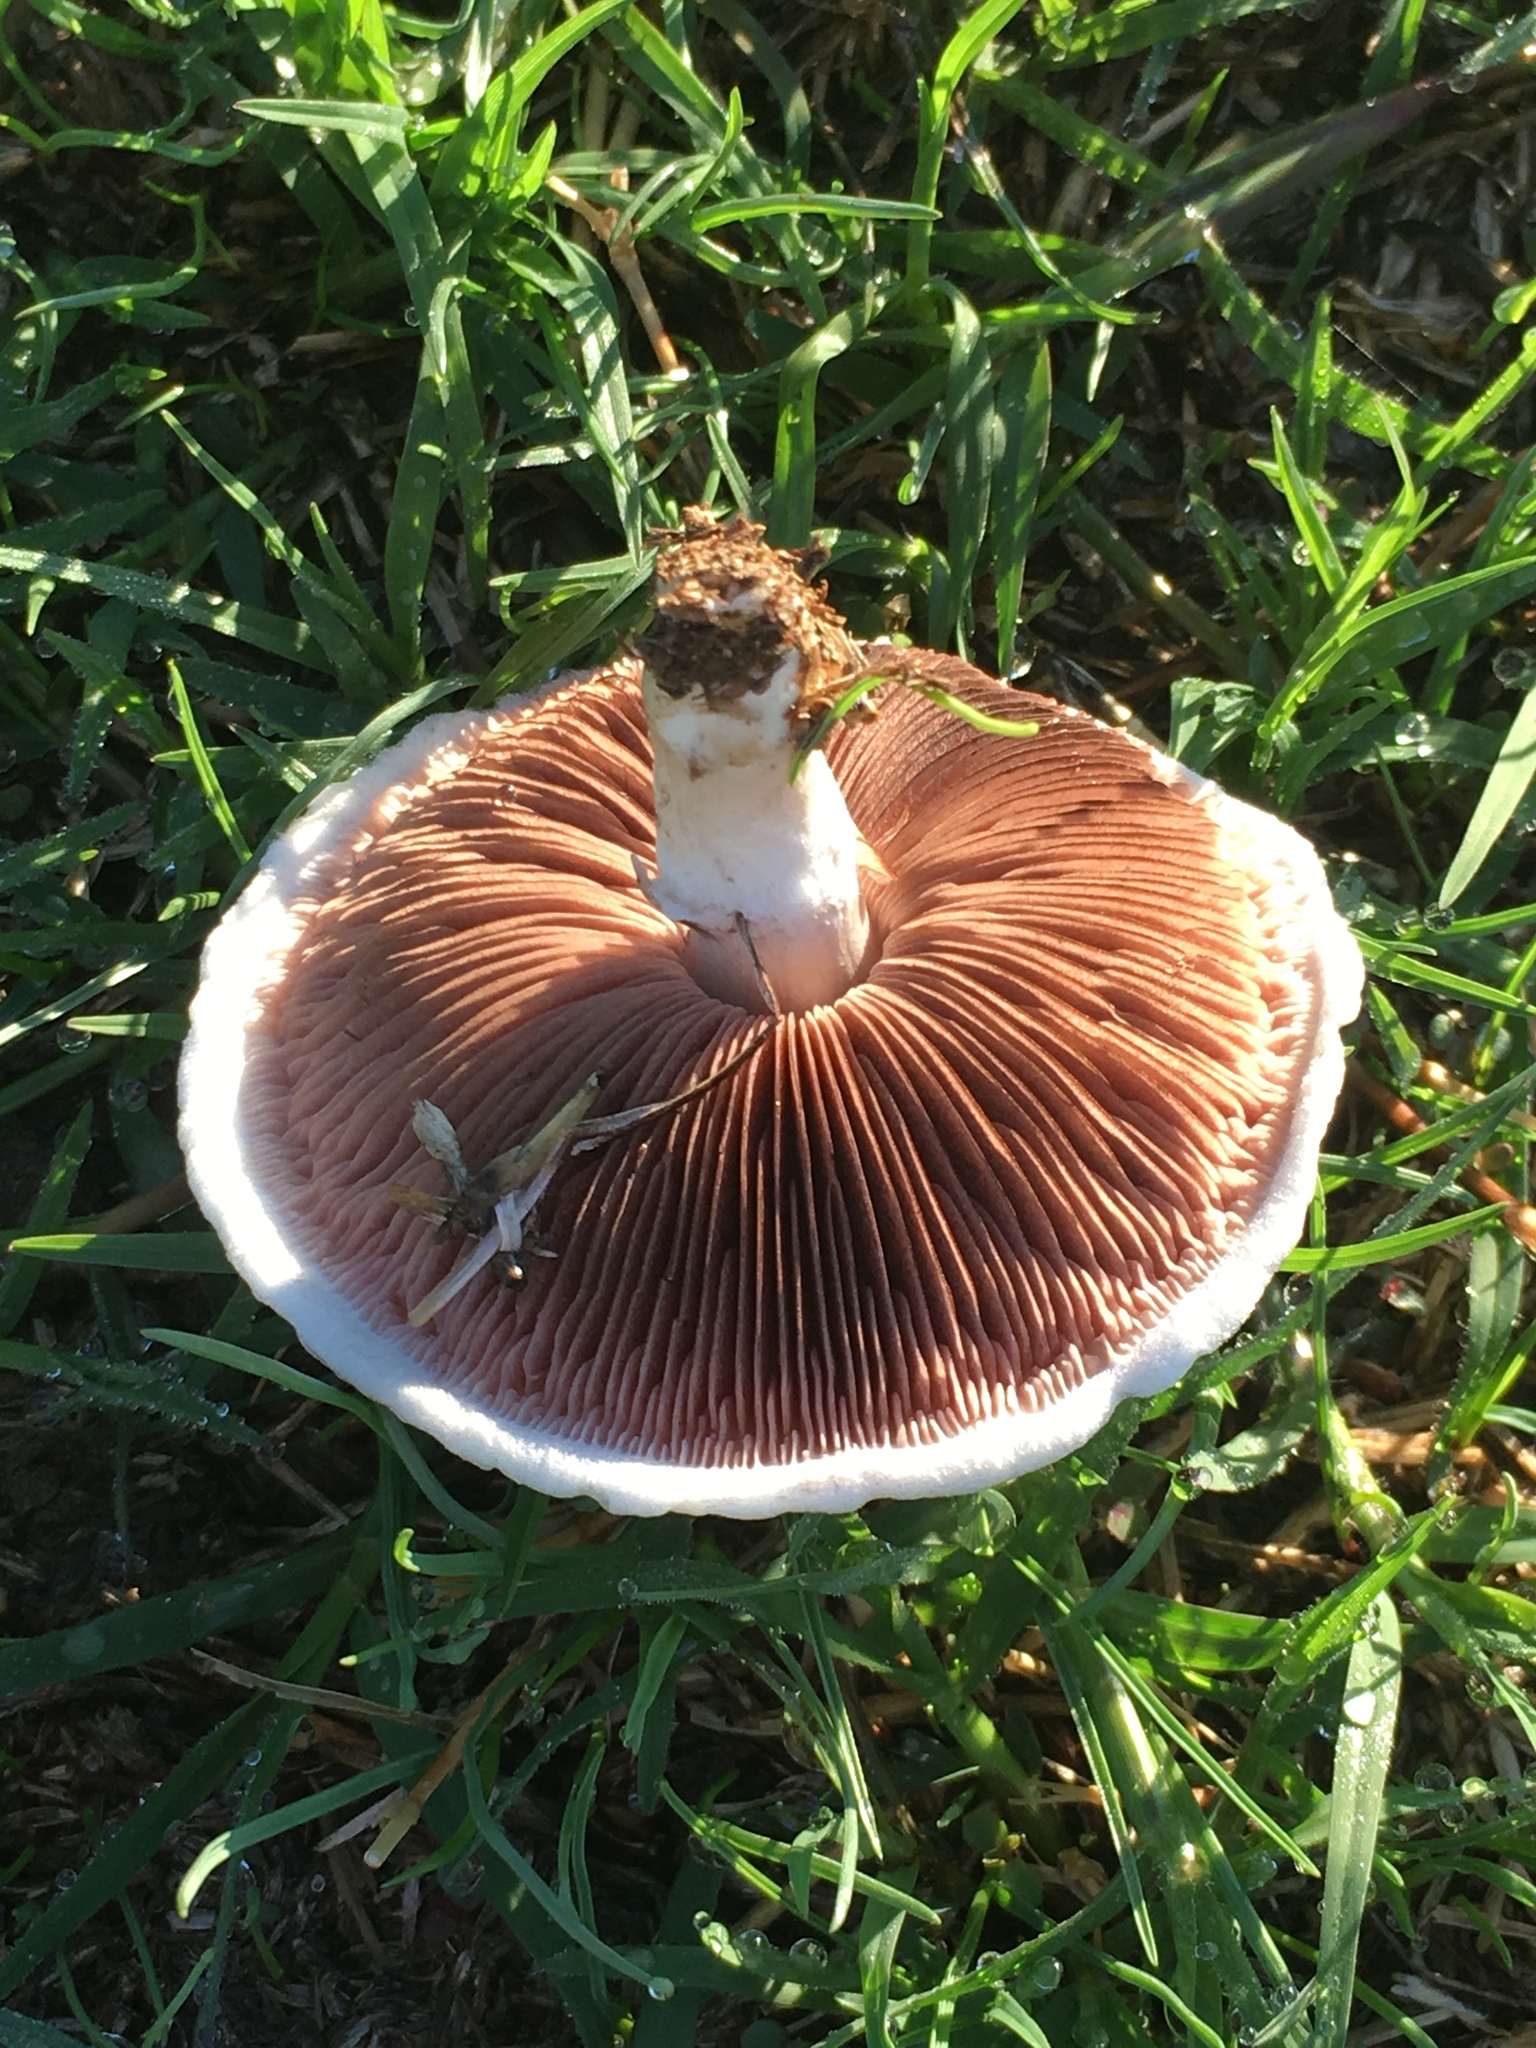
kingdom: Fungi
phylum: Basidiomycota
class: Agaricomycetes
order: Agaricales
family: Agaricaceae
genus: Agaricus
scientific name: Agaricus campestris
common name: Field mushroom
